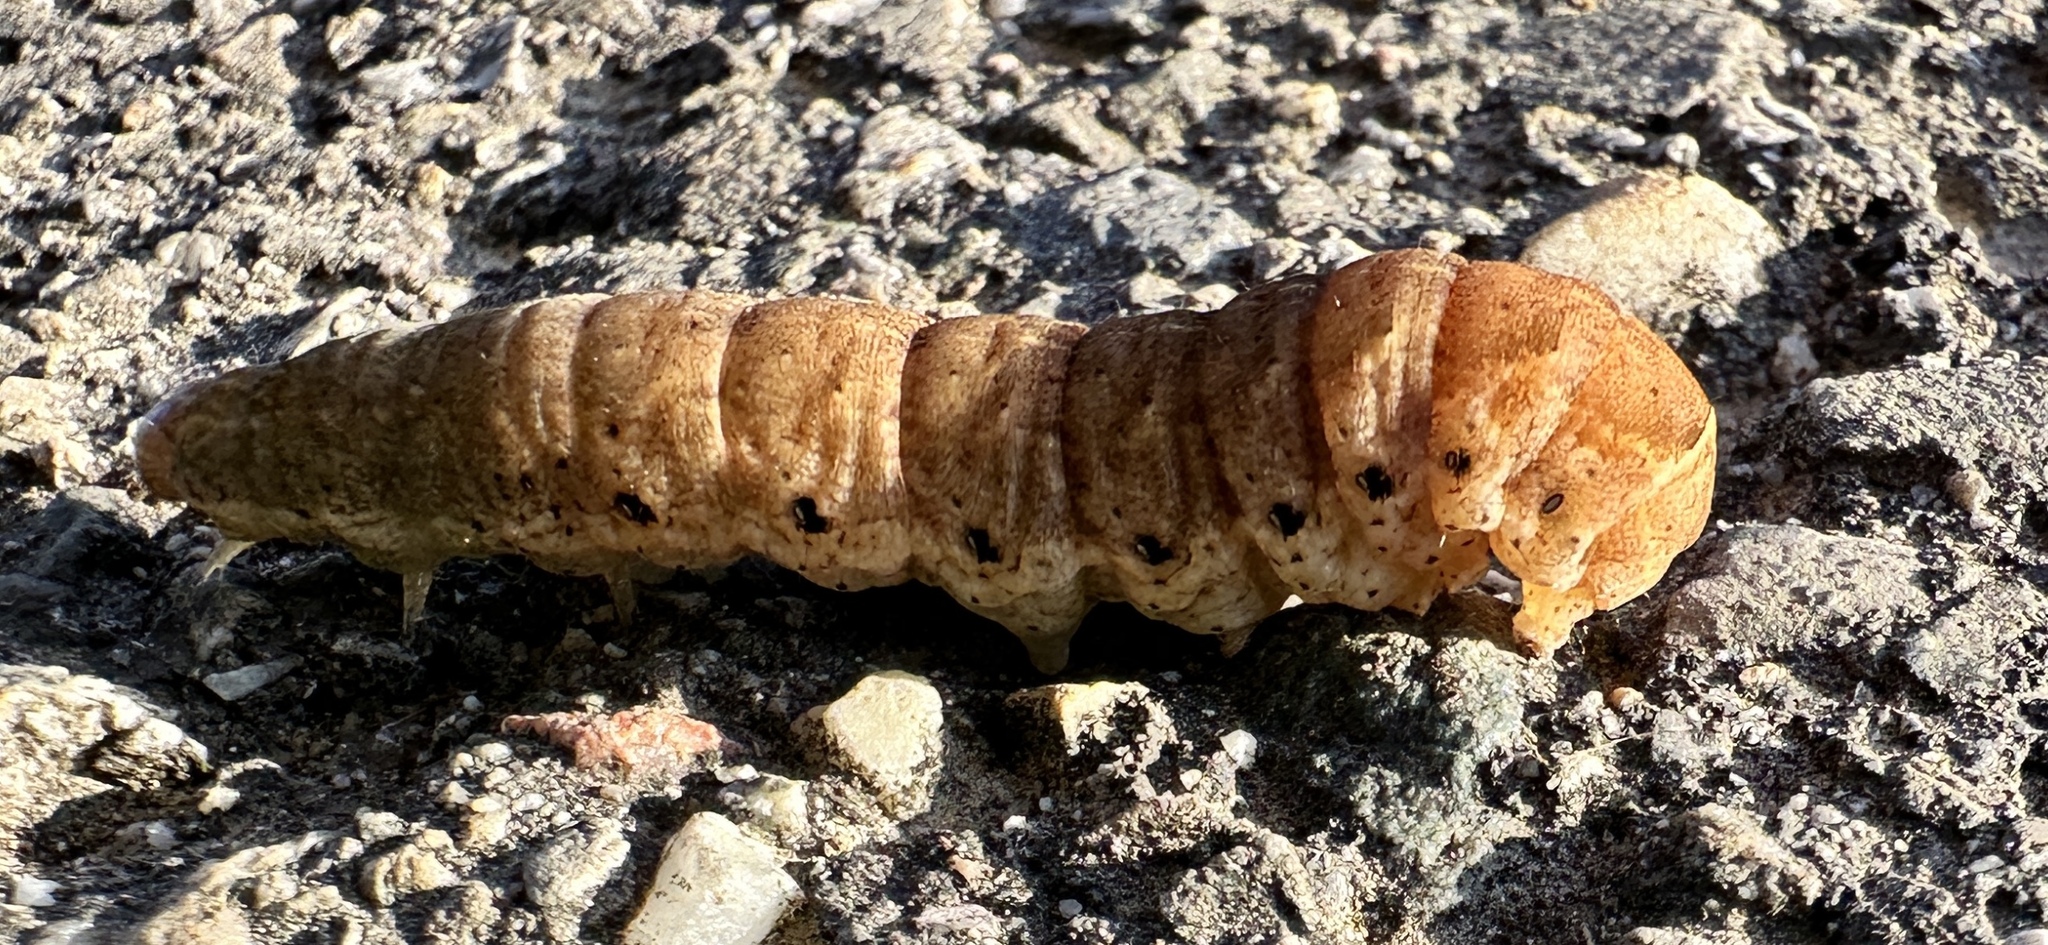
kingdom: Animalia
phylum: Arthropoda
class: Insecta
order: Lepidoptera
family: Noctuidae
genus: Noctua
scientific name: Noctua fimbriata
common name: Broad-bordered yellow underwing
